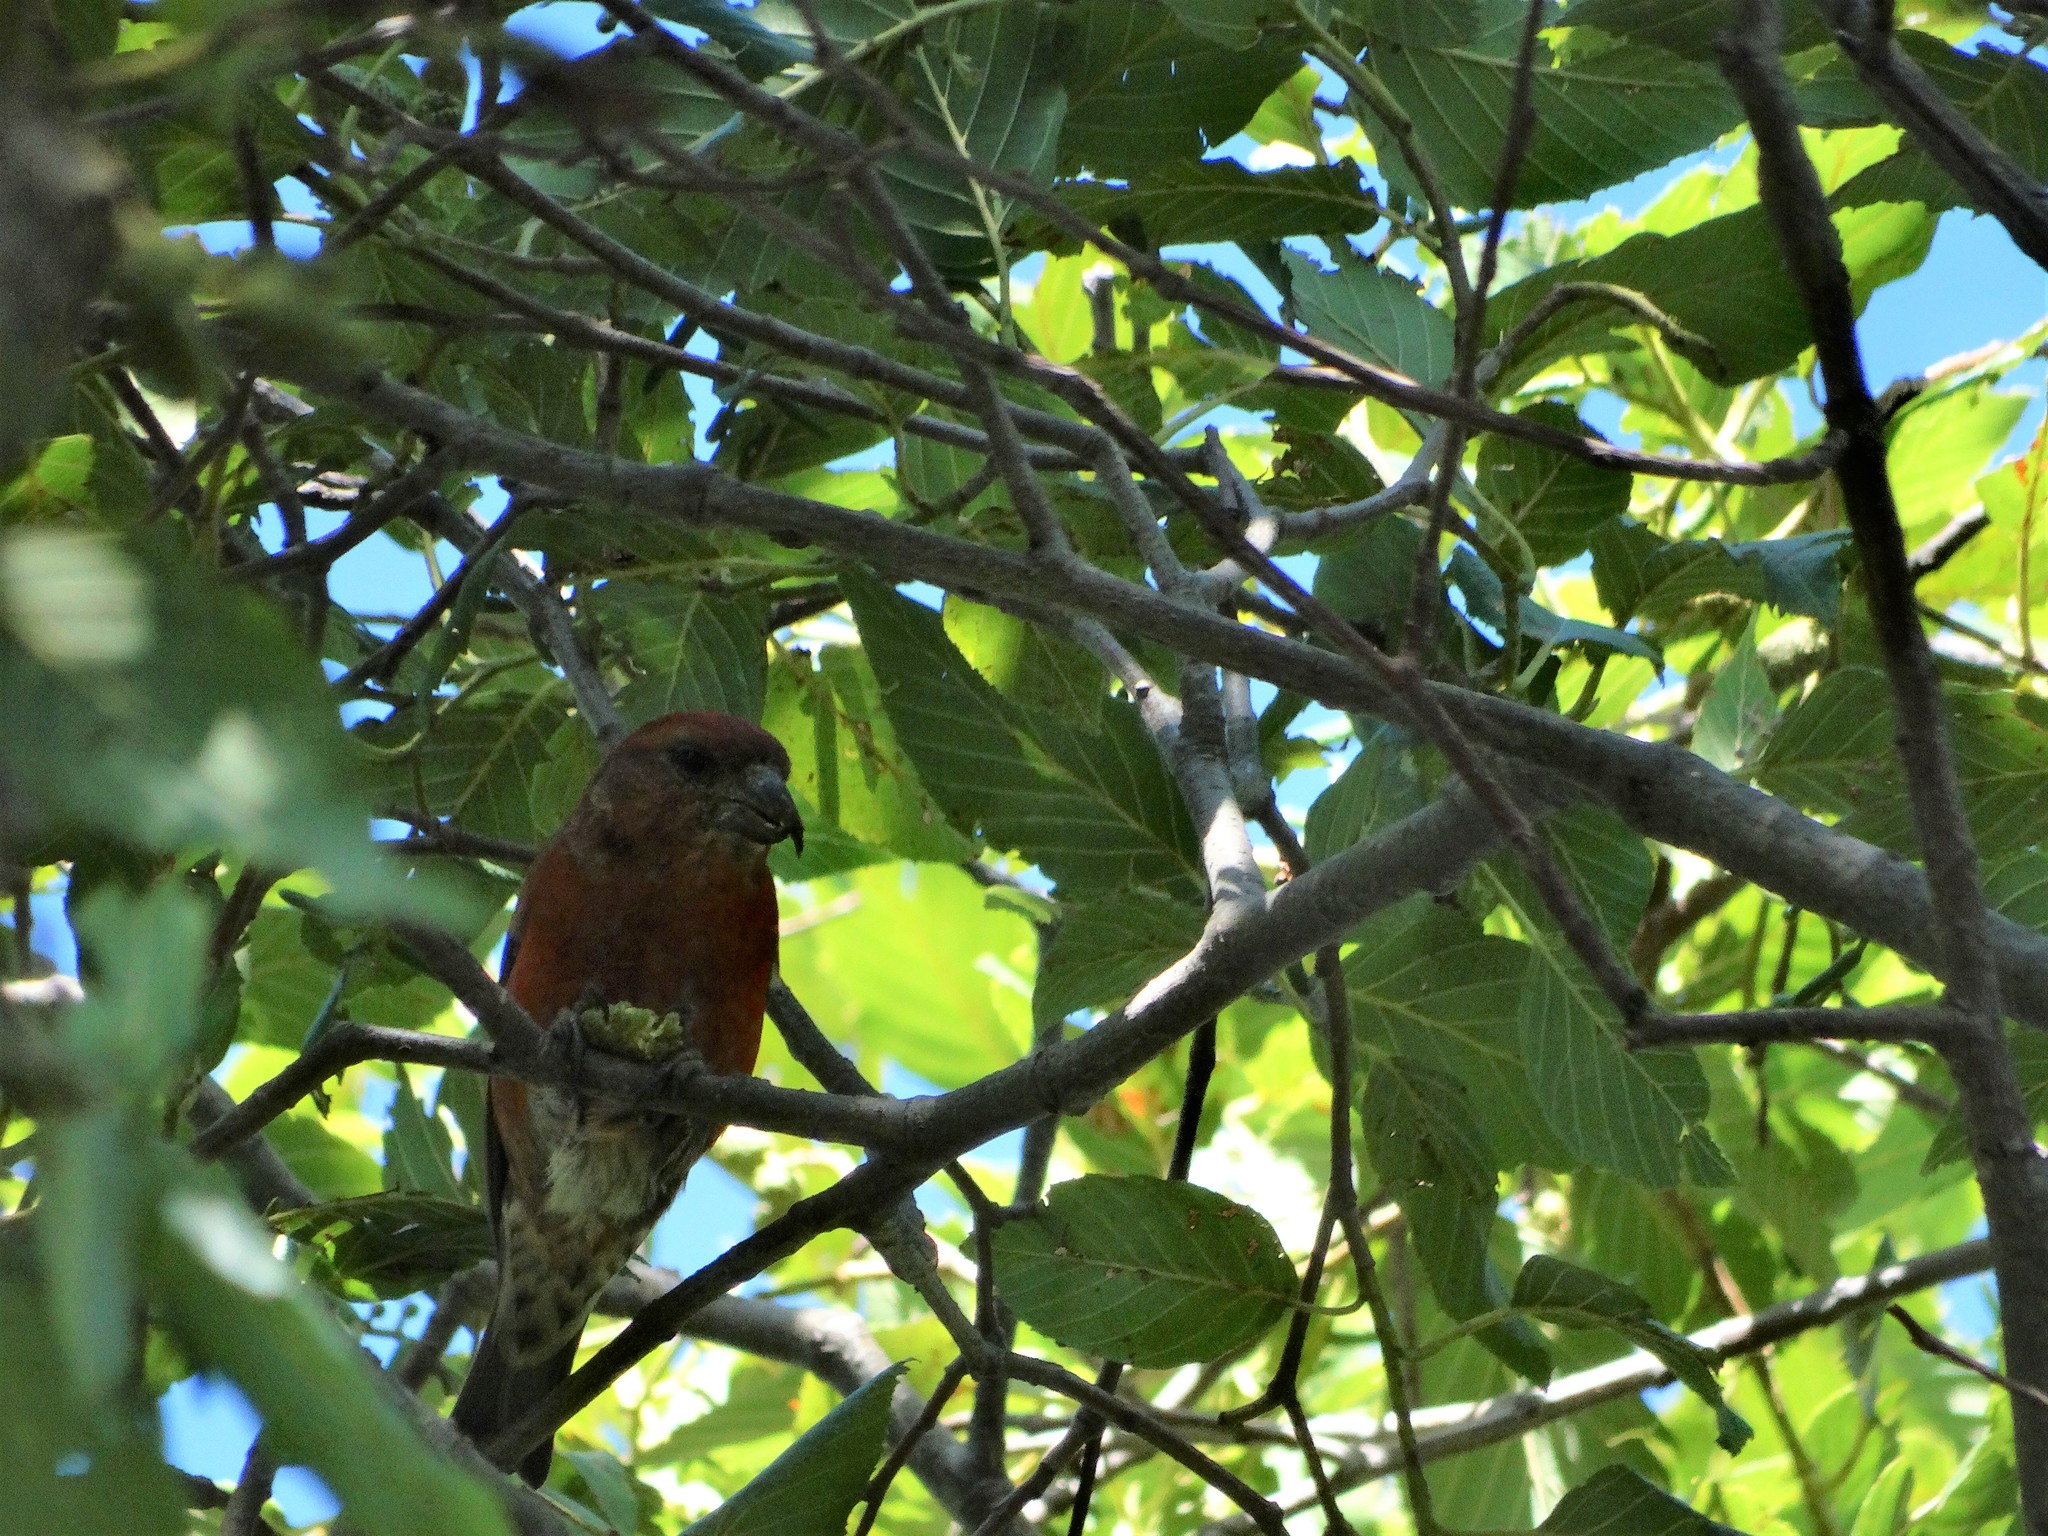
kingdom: Animalia
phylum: Chordata
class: Aves
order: Passeriformes
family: Fringillidae
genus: Loxia
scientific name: Loxia curvirostra
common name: Red crossbill
